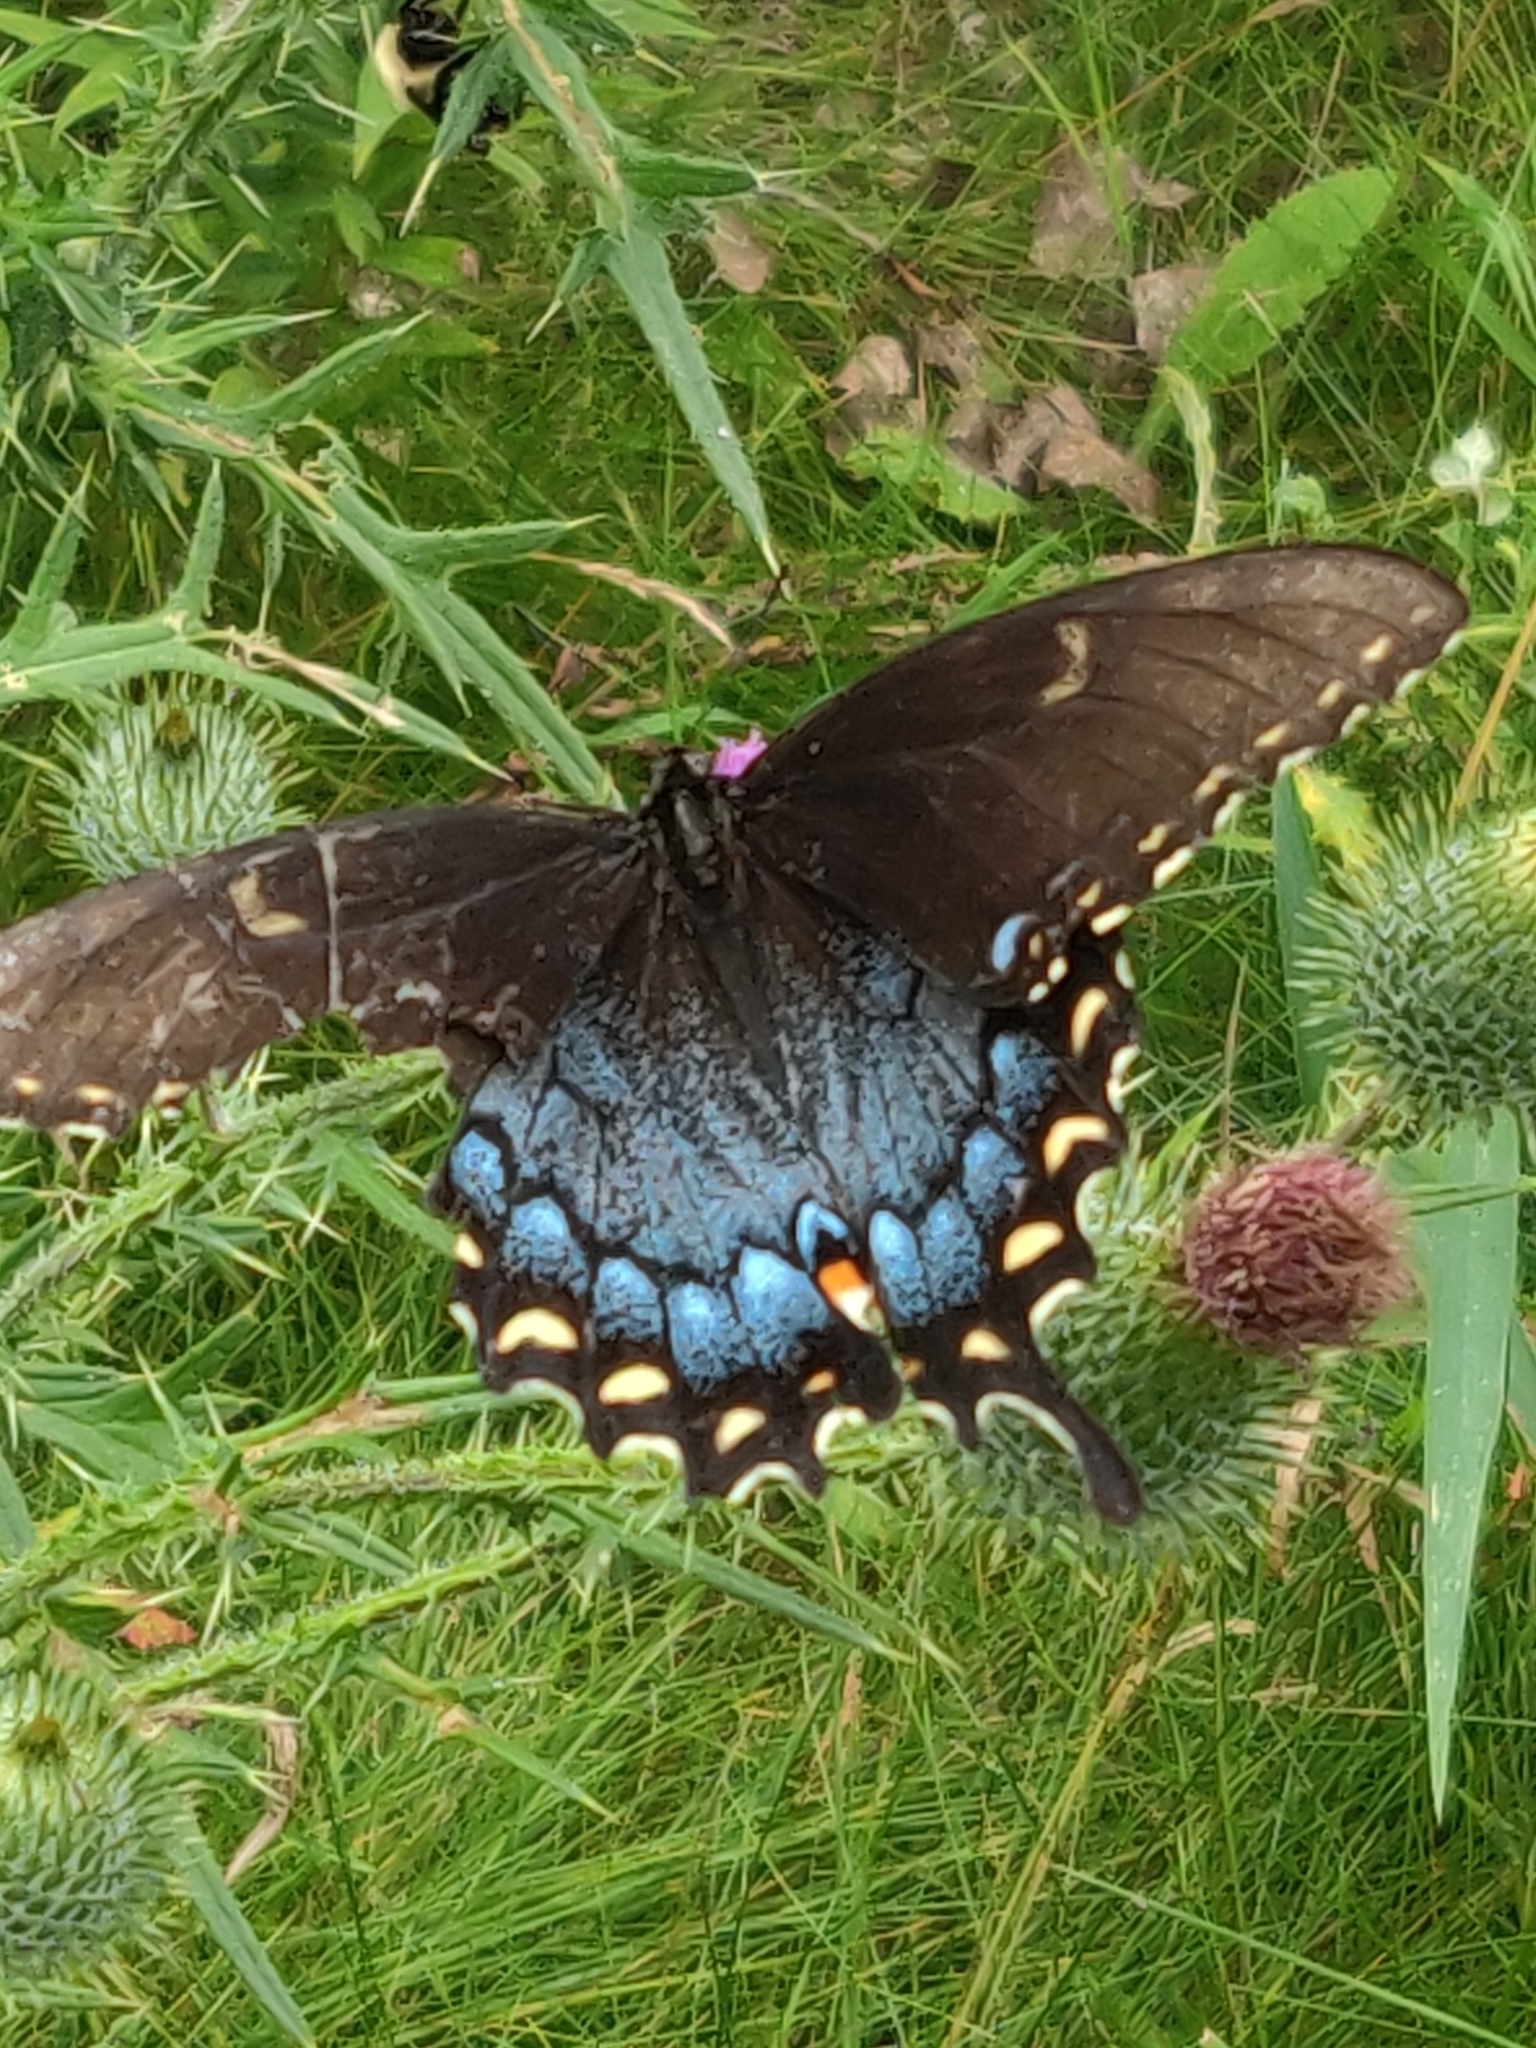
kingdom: Animalia
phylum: Arthropoda
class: Insecta
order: Lepidoptera
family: Papilionidae
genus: Papilio
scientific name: Papilio glaucus
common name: Tiger swallowtail
